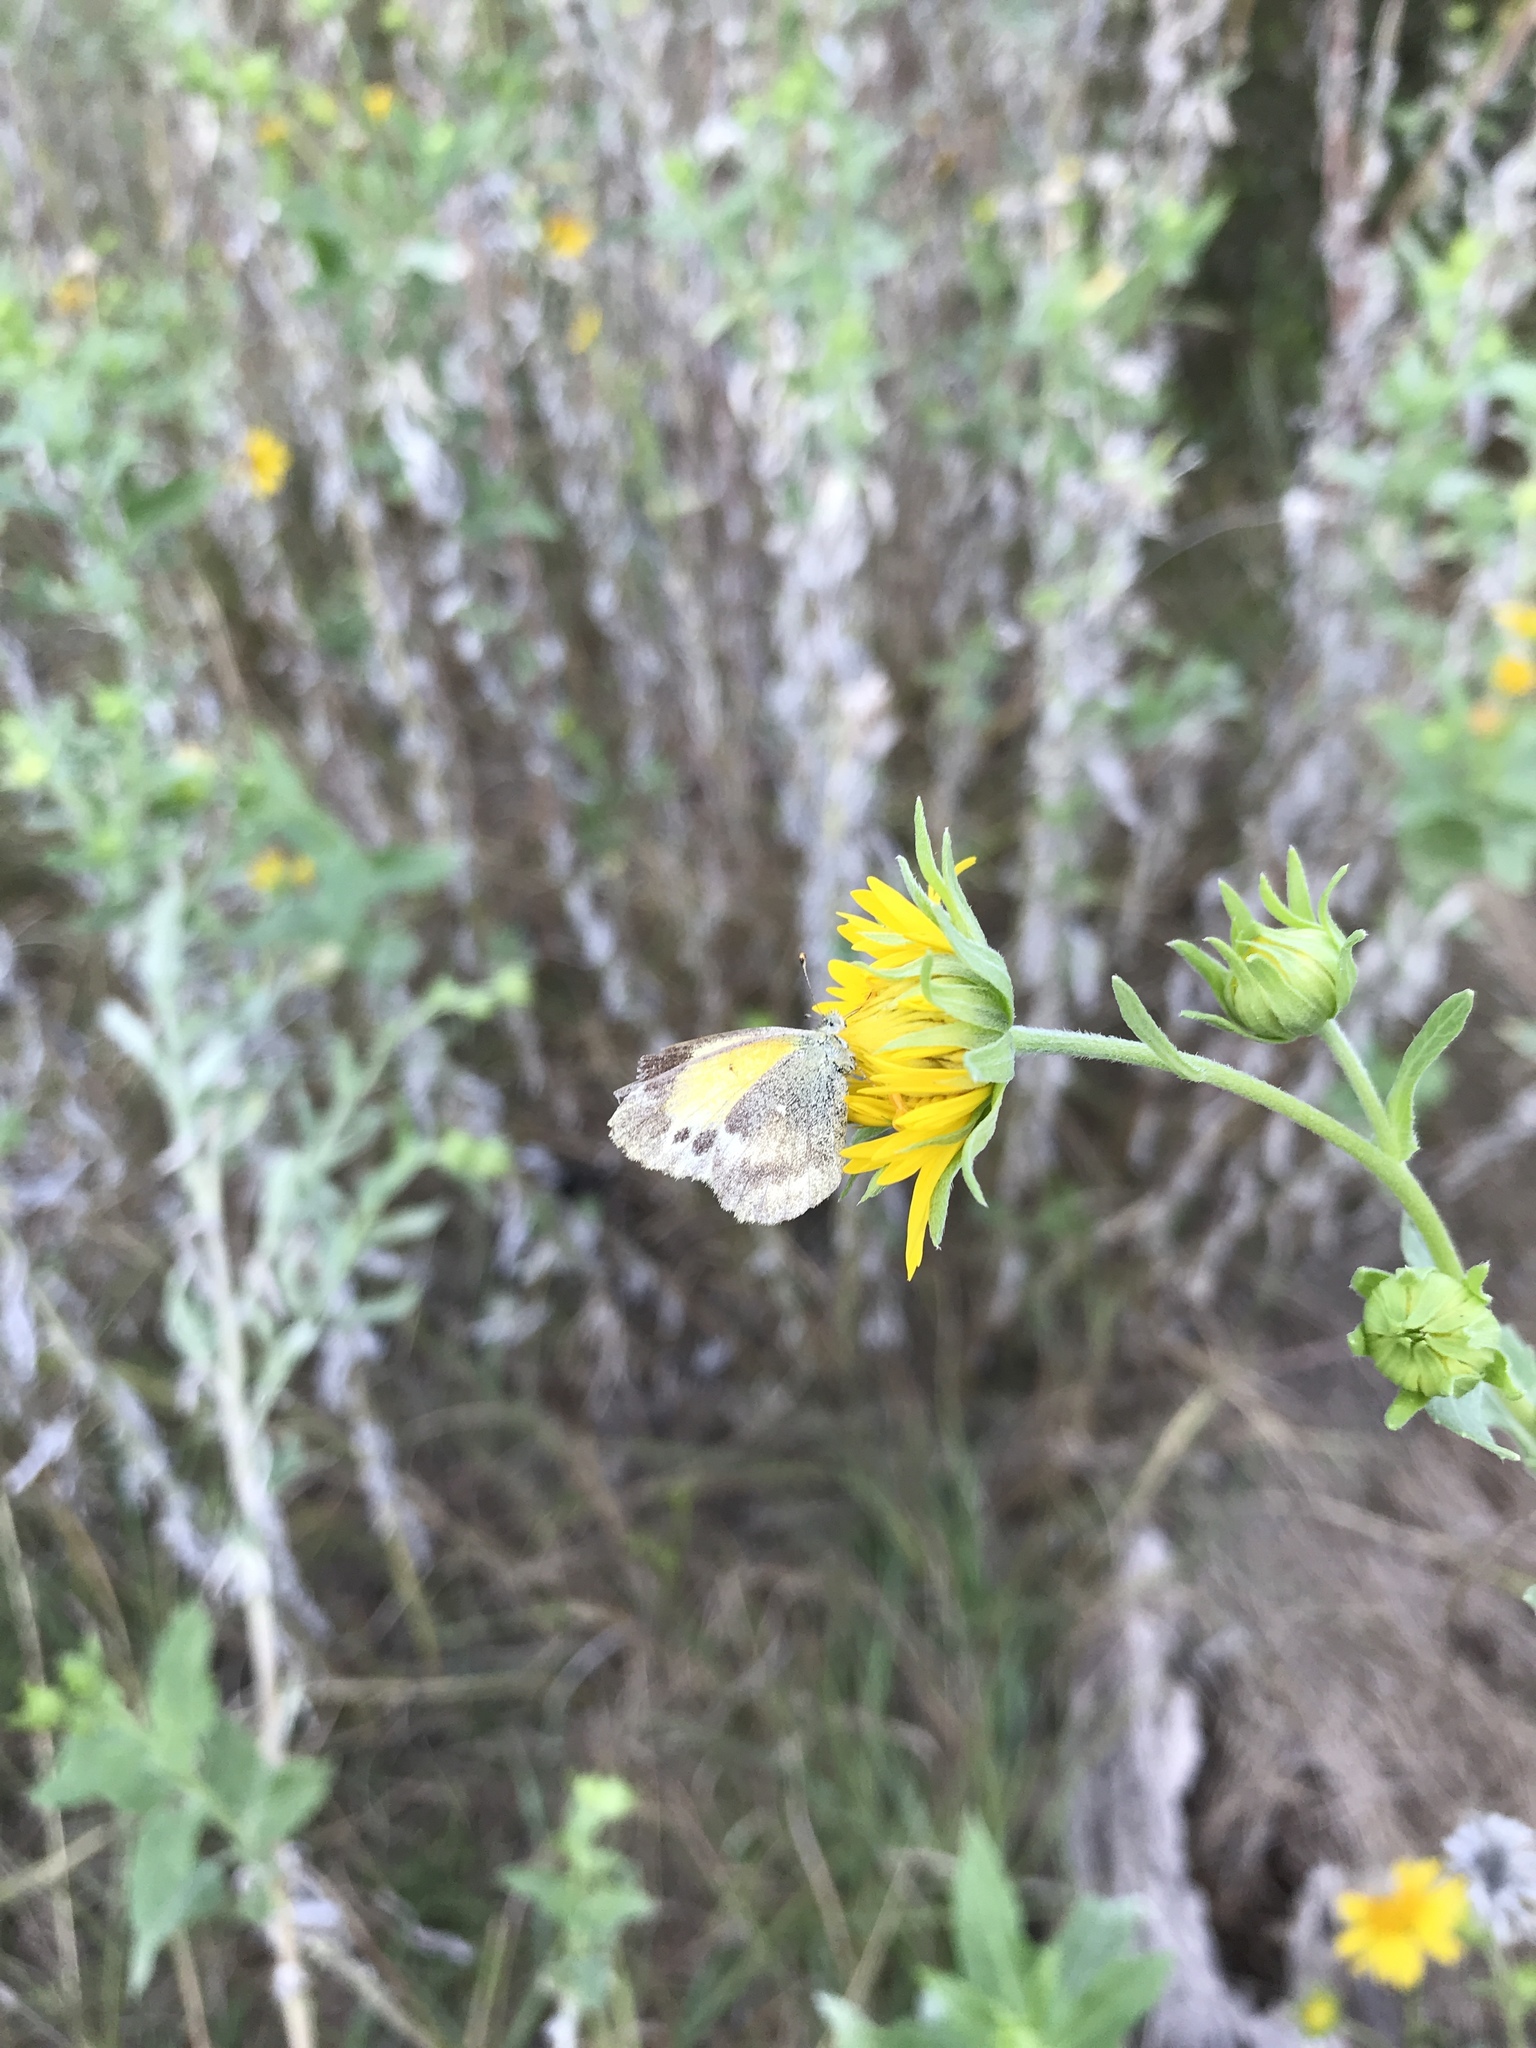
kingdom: Animalia
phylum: Arthropoda
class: Insecta
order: Lepidoptera
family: Pieridae
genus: Nathalis
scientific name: Nathalis iole
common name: Dainty sulphur
